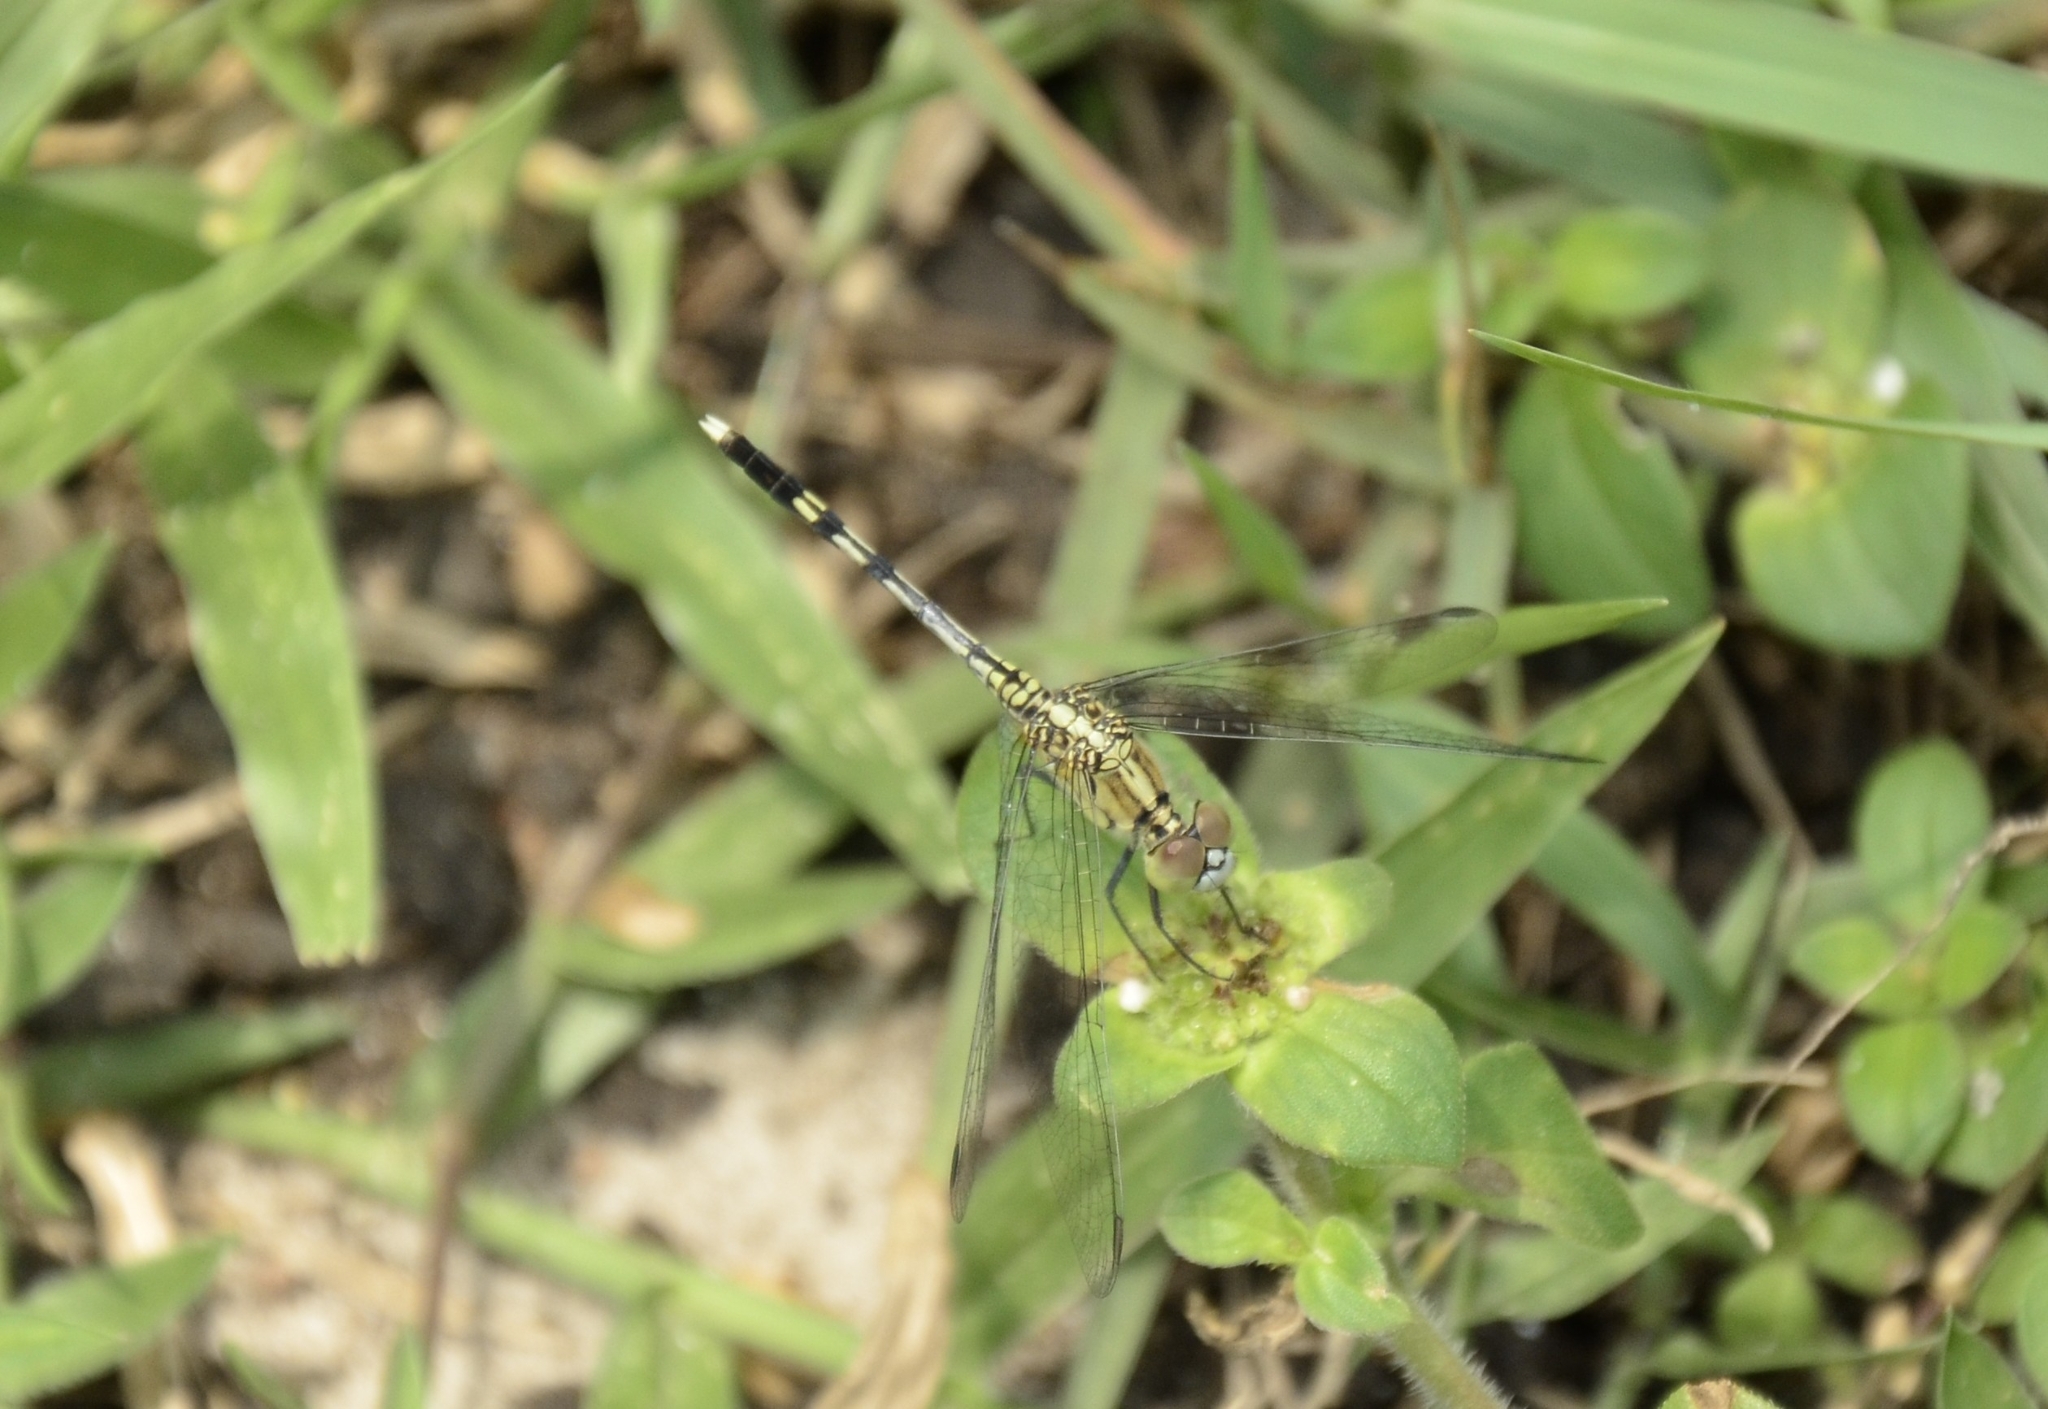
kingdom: Animalia
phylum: Arthropoda
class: Insecta
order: Odonata
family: Libellulidae
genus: Diplacodes
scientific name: Diplacodes trivialis
